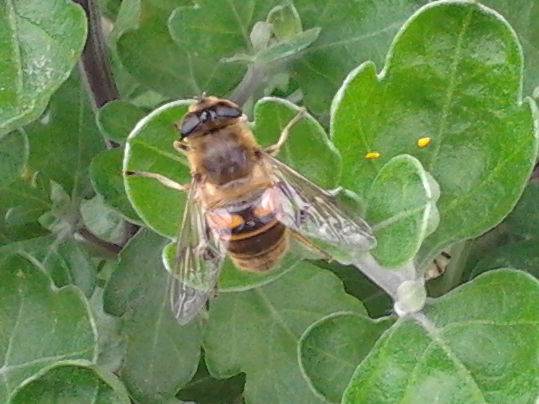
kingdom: Animalia
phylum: Arthropoda
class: Insecta
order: Diptera
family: Syrphidae
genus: Eristalis
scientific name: Eristalis tenax
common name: Drone fly
